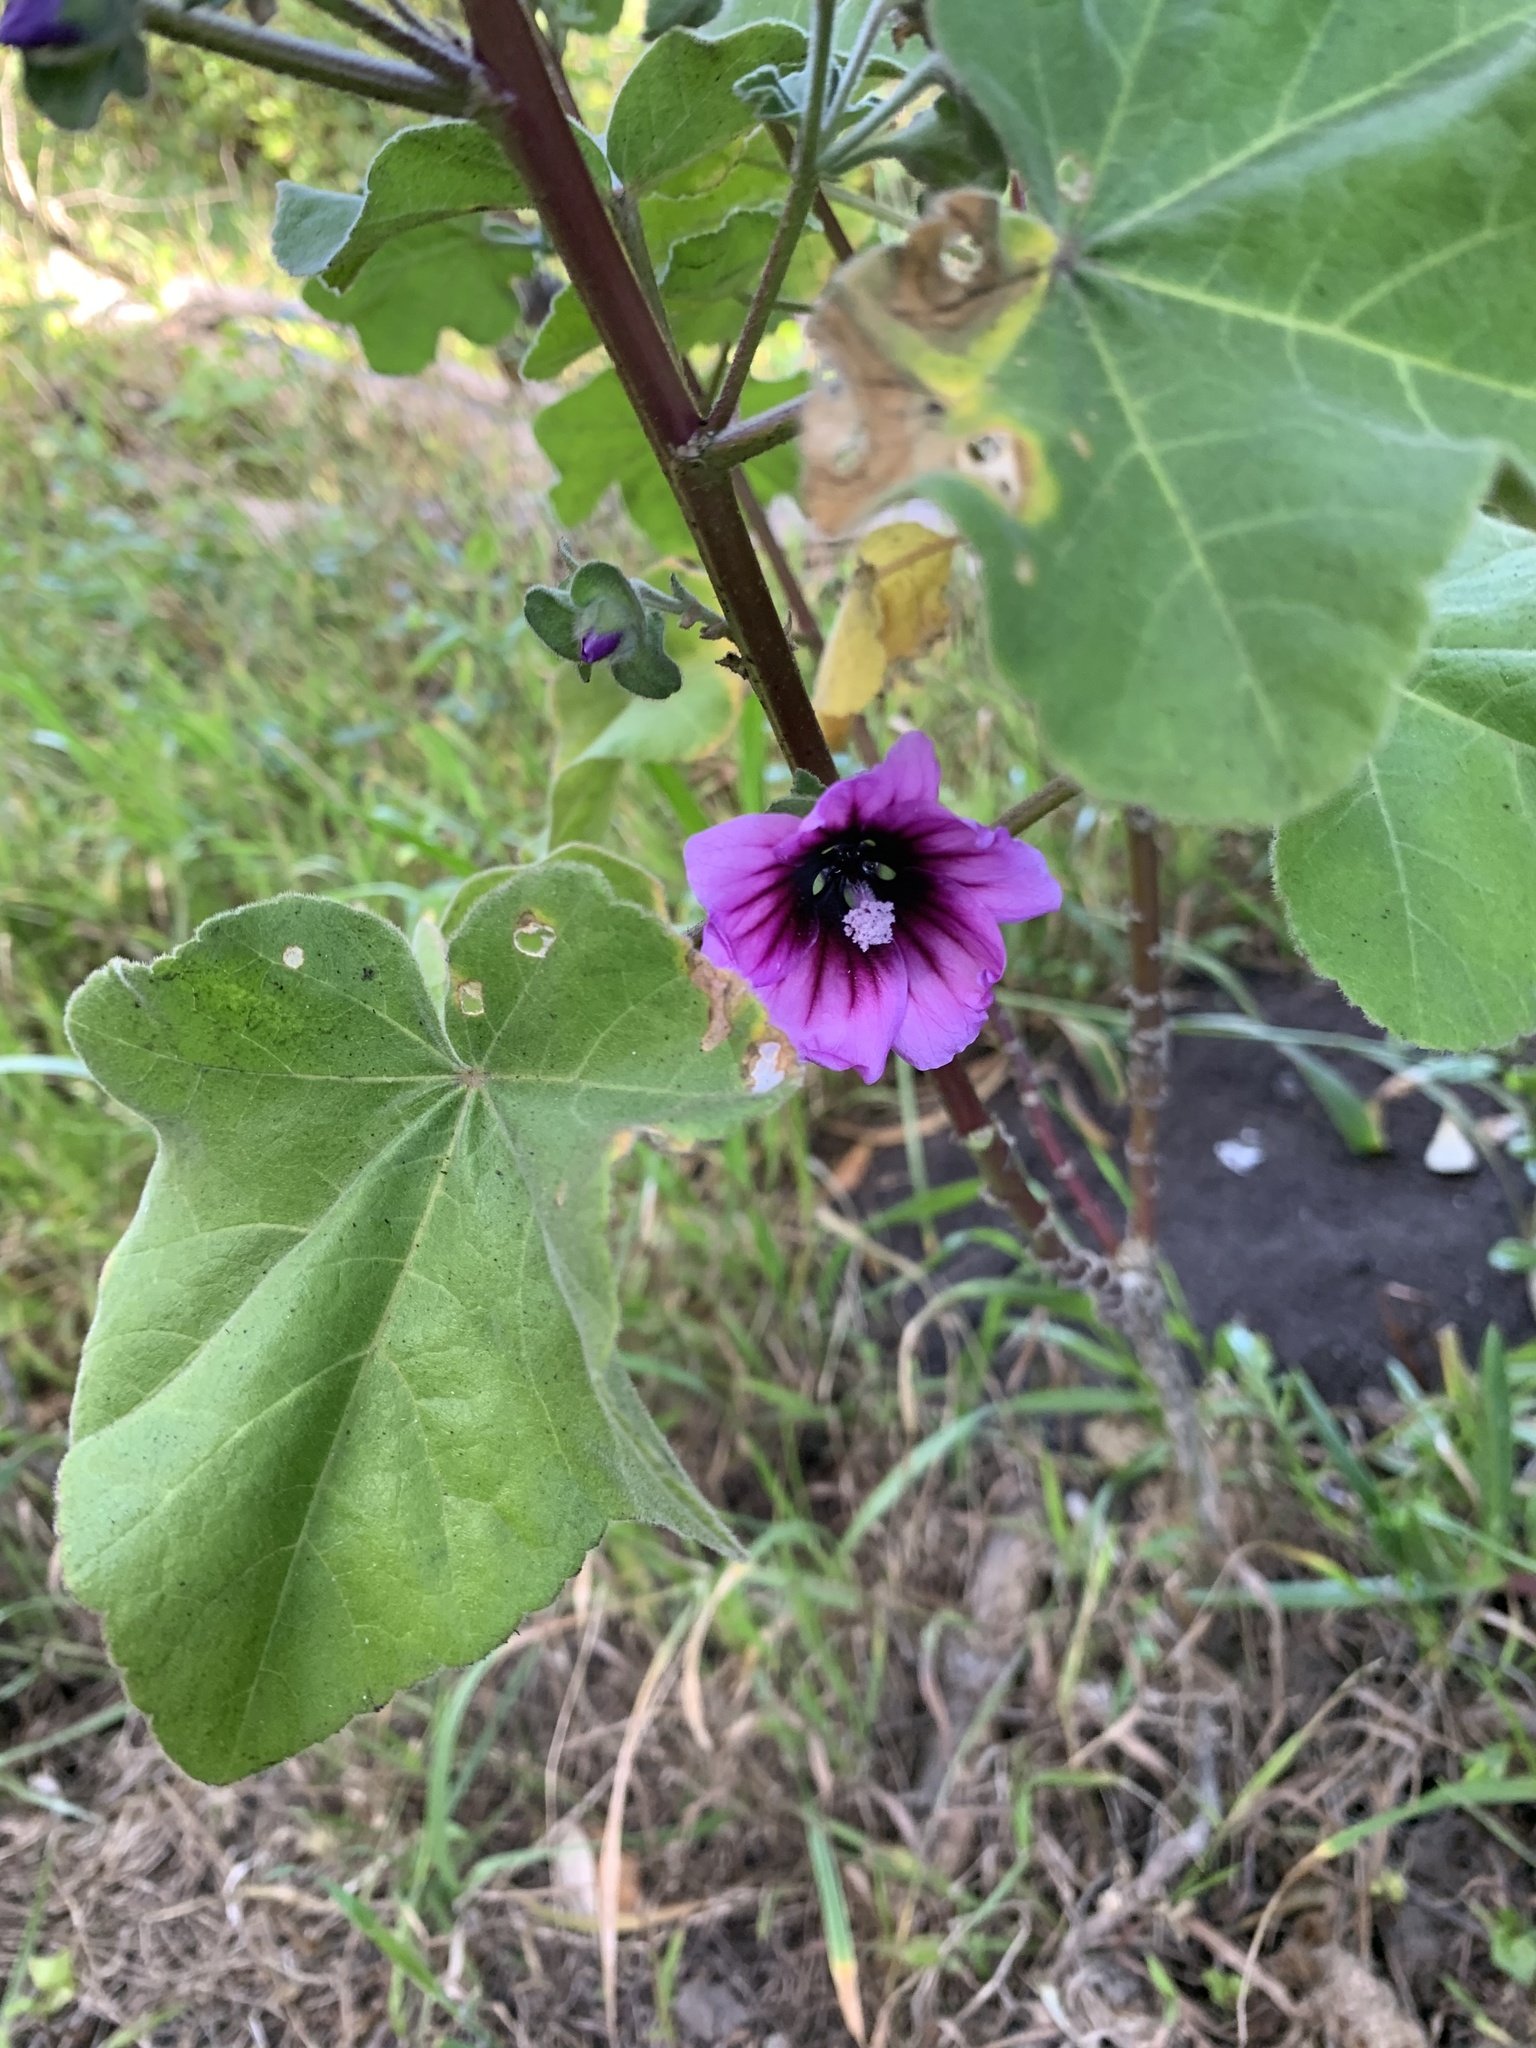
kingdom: Plantae
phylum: Tracheophyta
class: Magnoliopsida
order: Malvales
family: Malvaceae
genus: Malva
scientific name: Malva arborea
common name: Tree mallow
